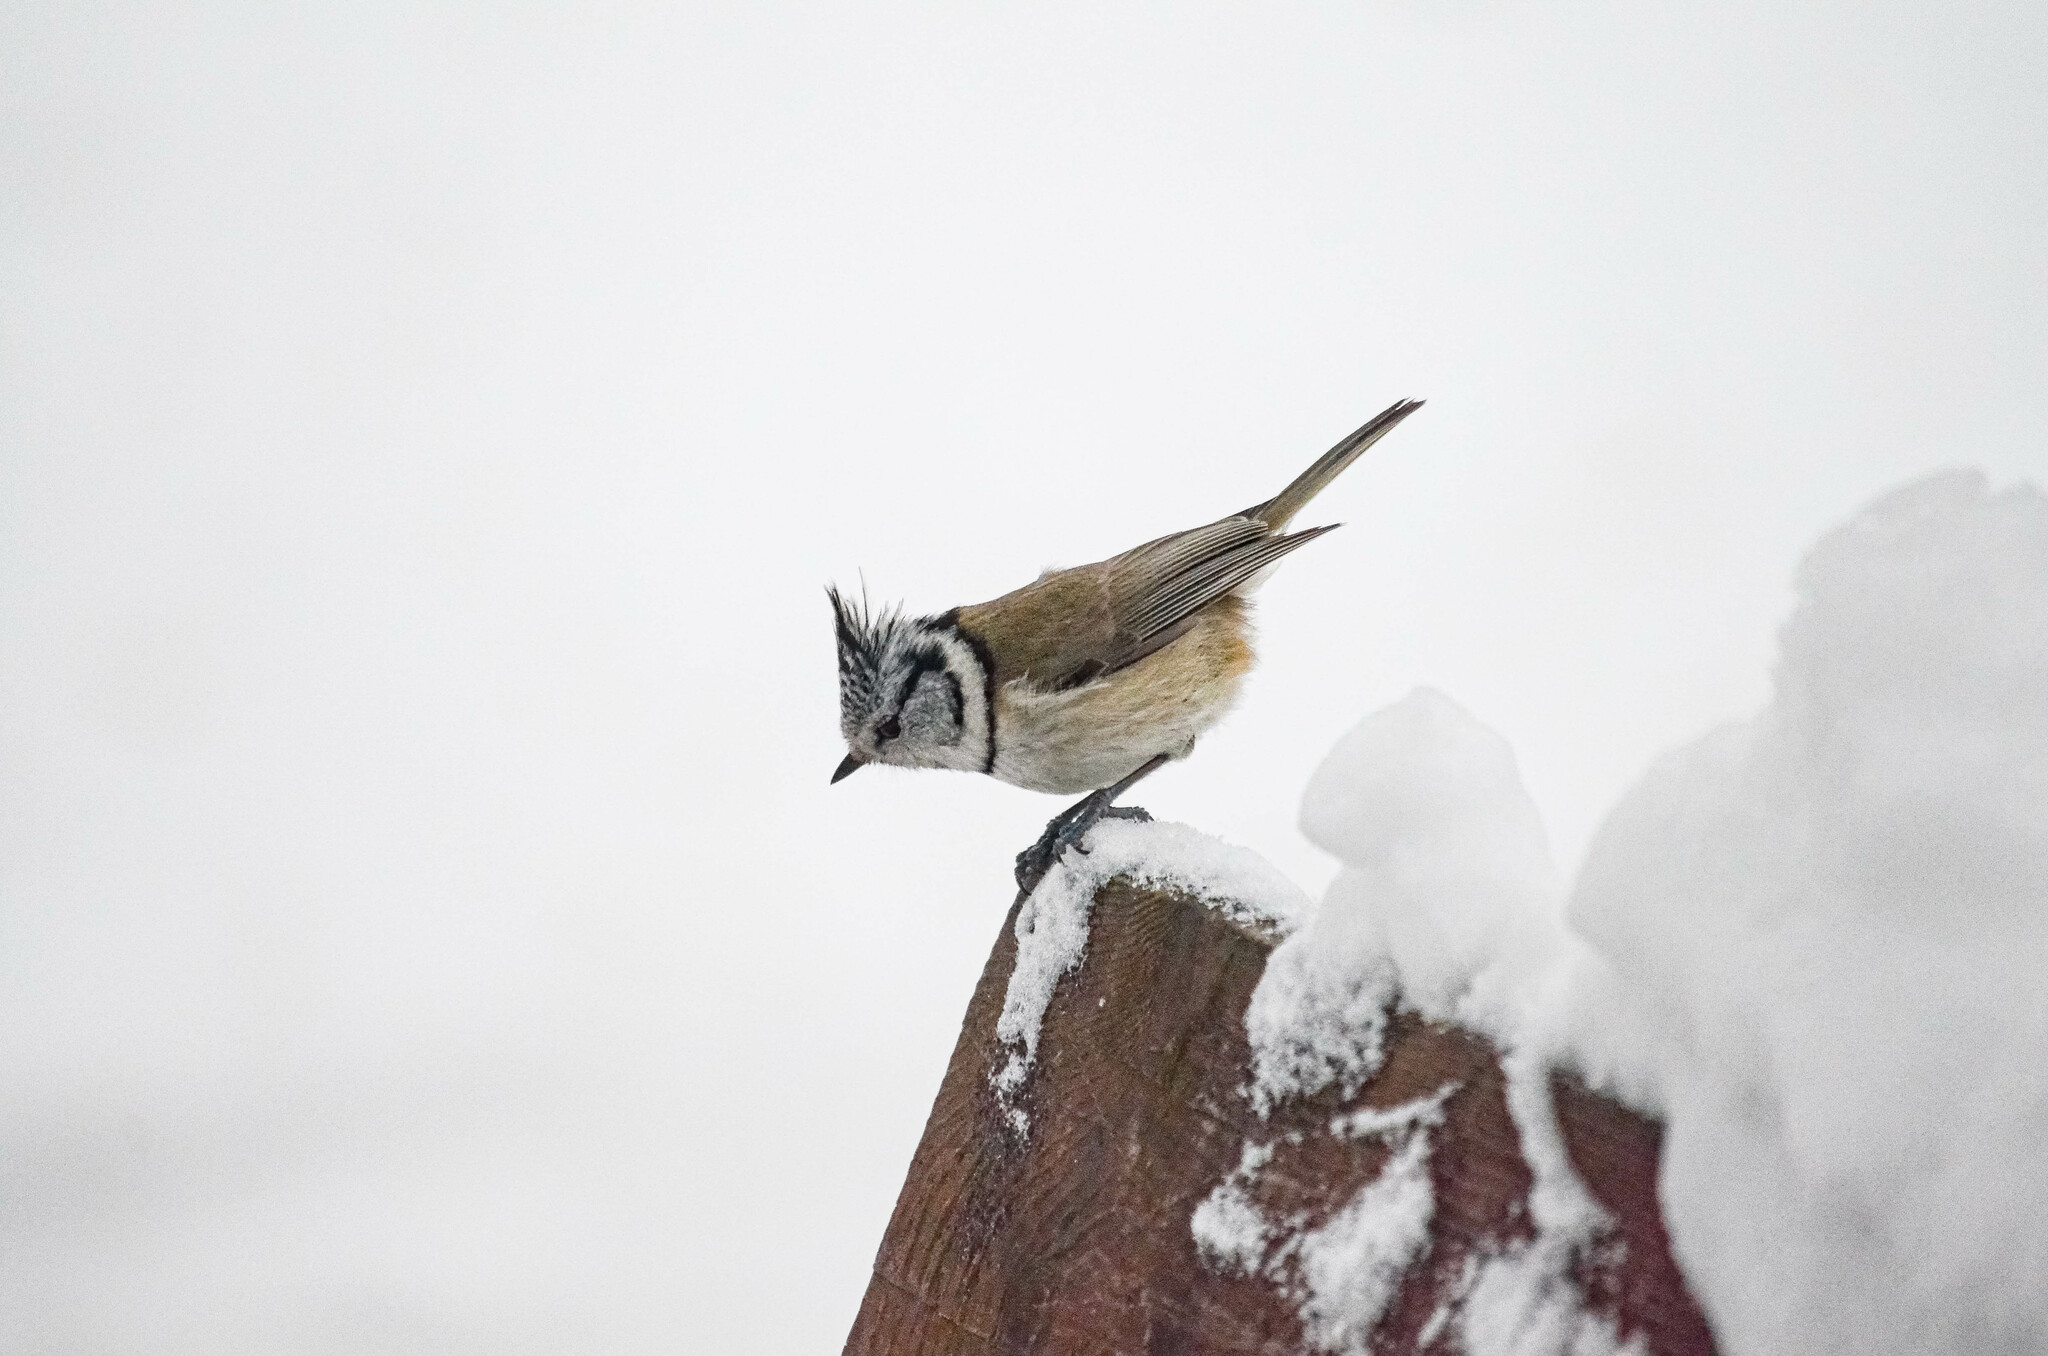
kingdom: Animalia
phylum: Chordata
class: Aves
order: Passeriformes
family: Paridae
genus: Lophophanes
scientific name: Lophophanes cristatus
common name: European crested tit
